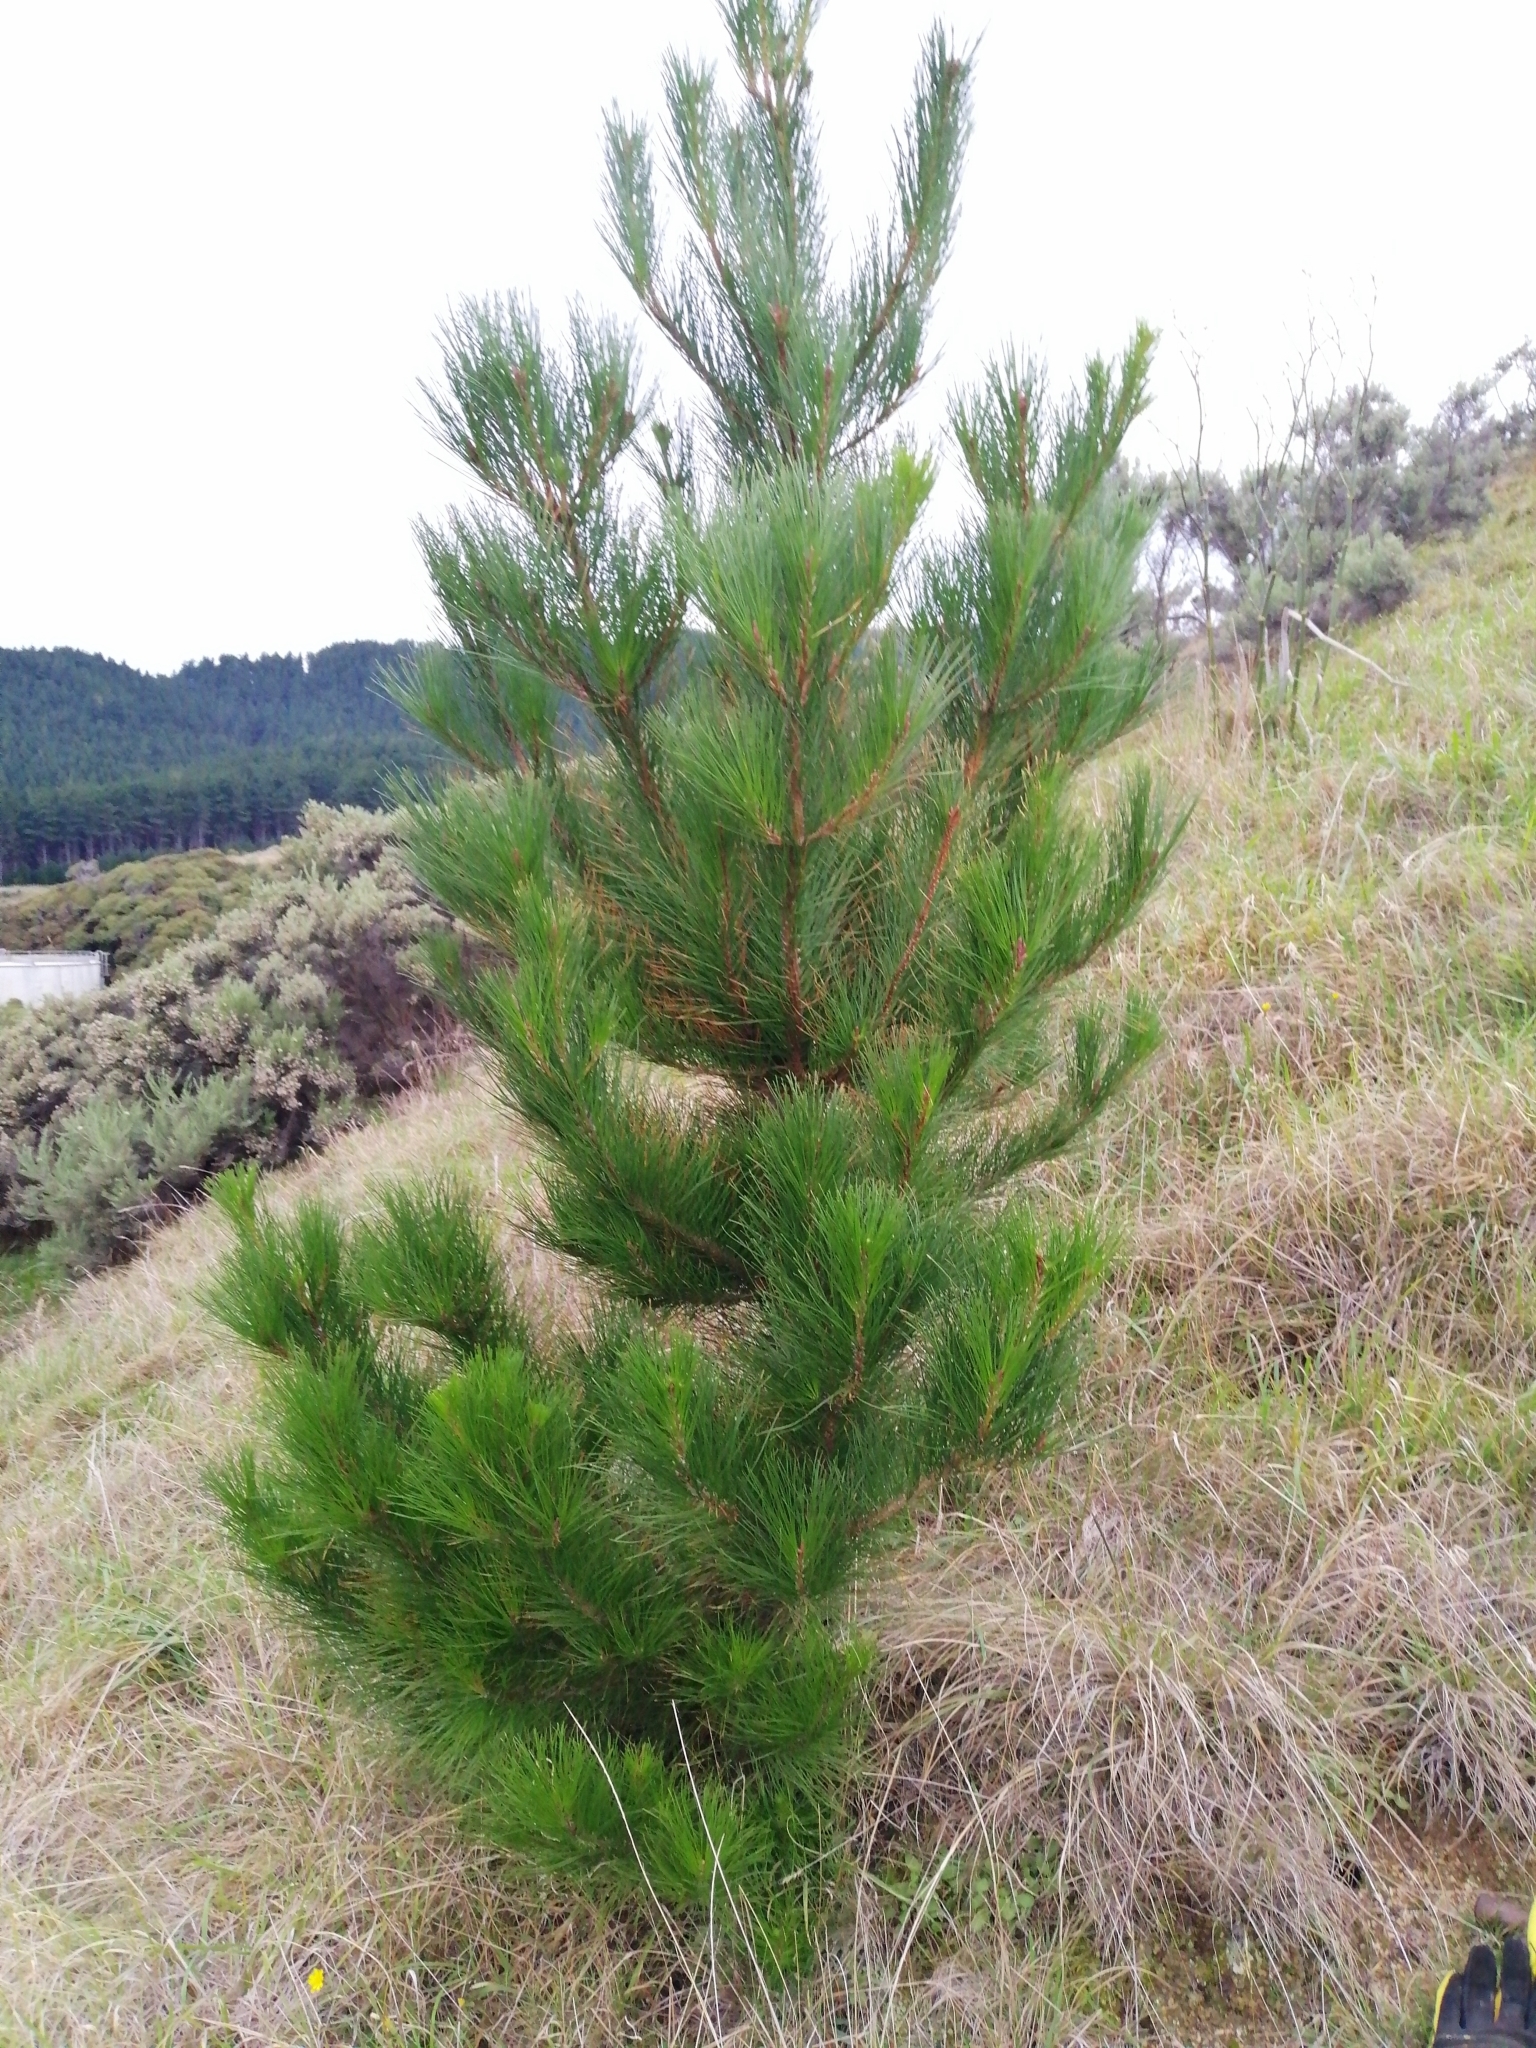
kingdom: Plantae
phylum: Tracheophyta
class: Pinopsida
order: Pinales
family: Pinaceae
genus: Pinus
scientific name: Pinus radiata
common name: Monterey pine
